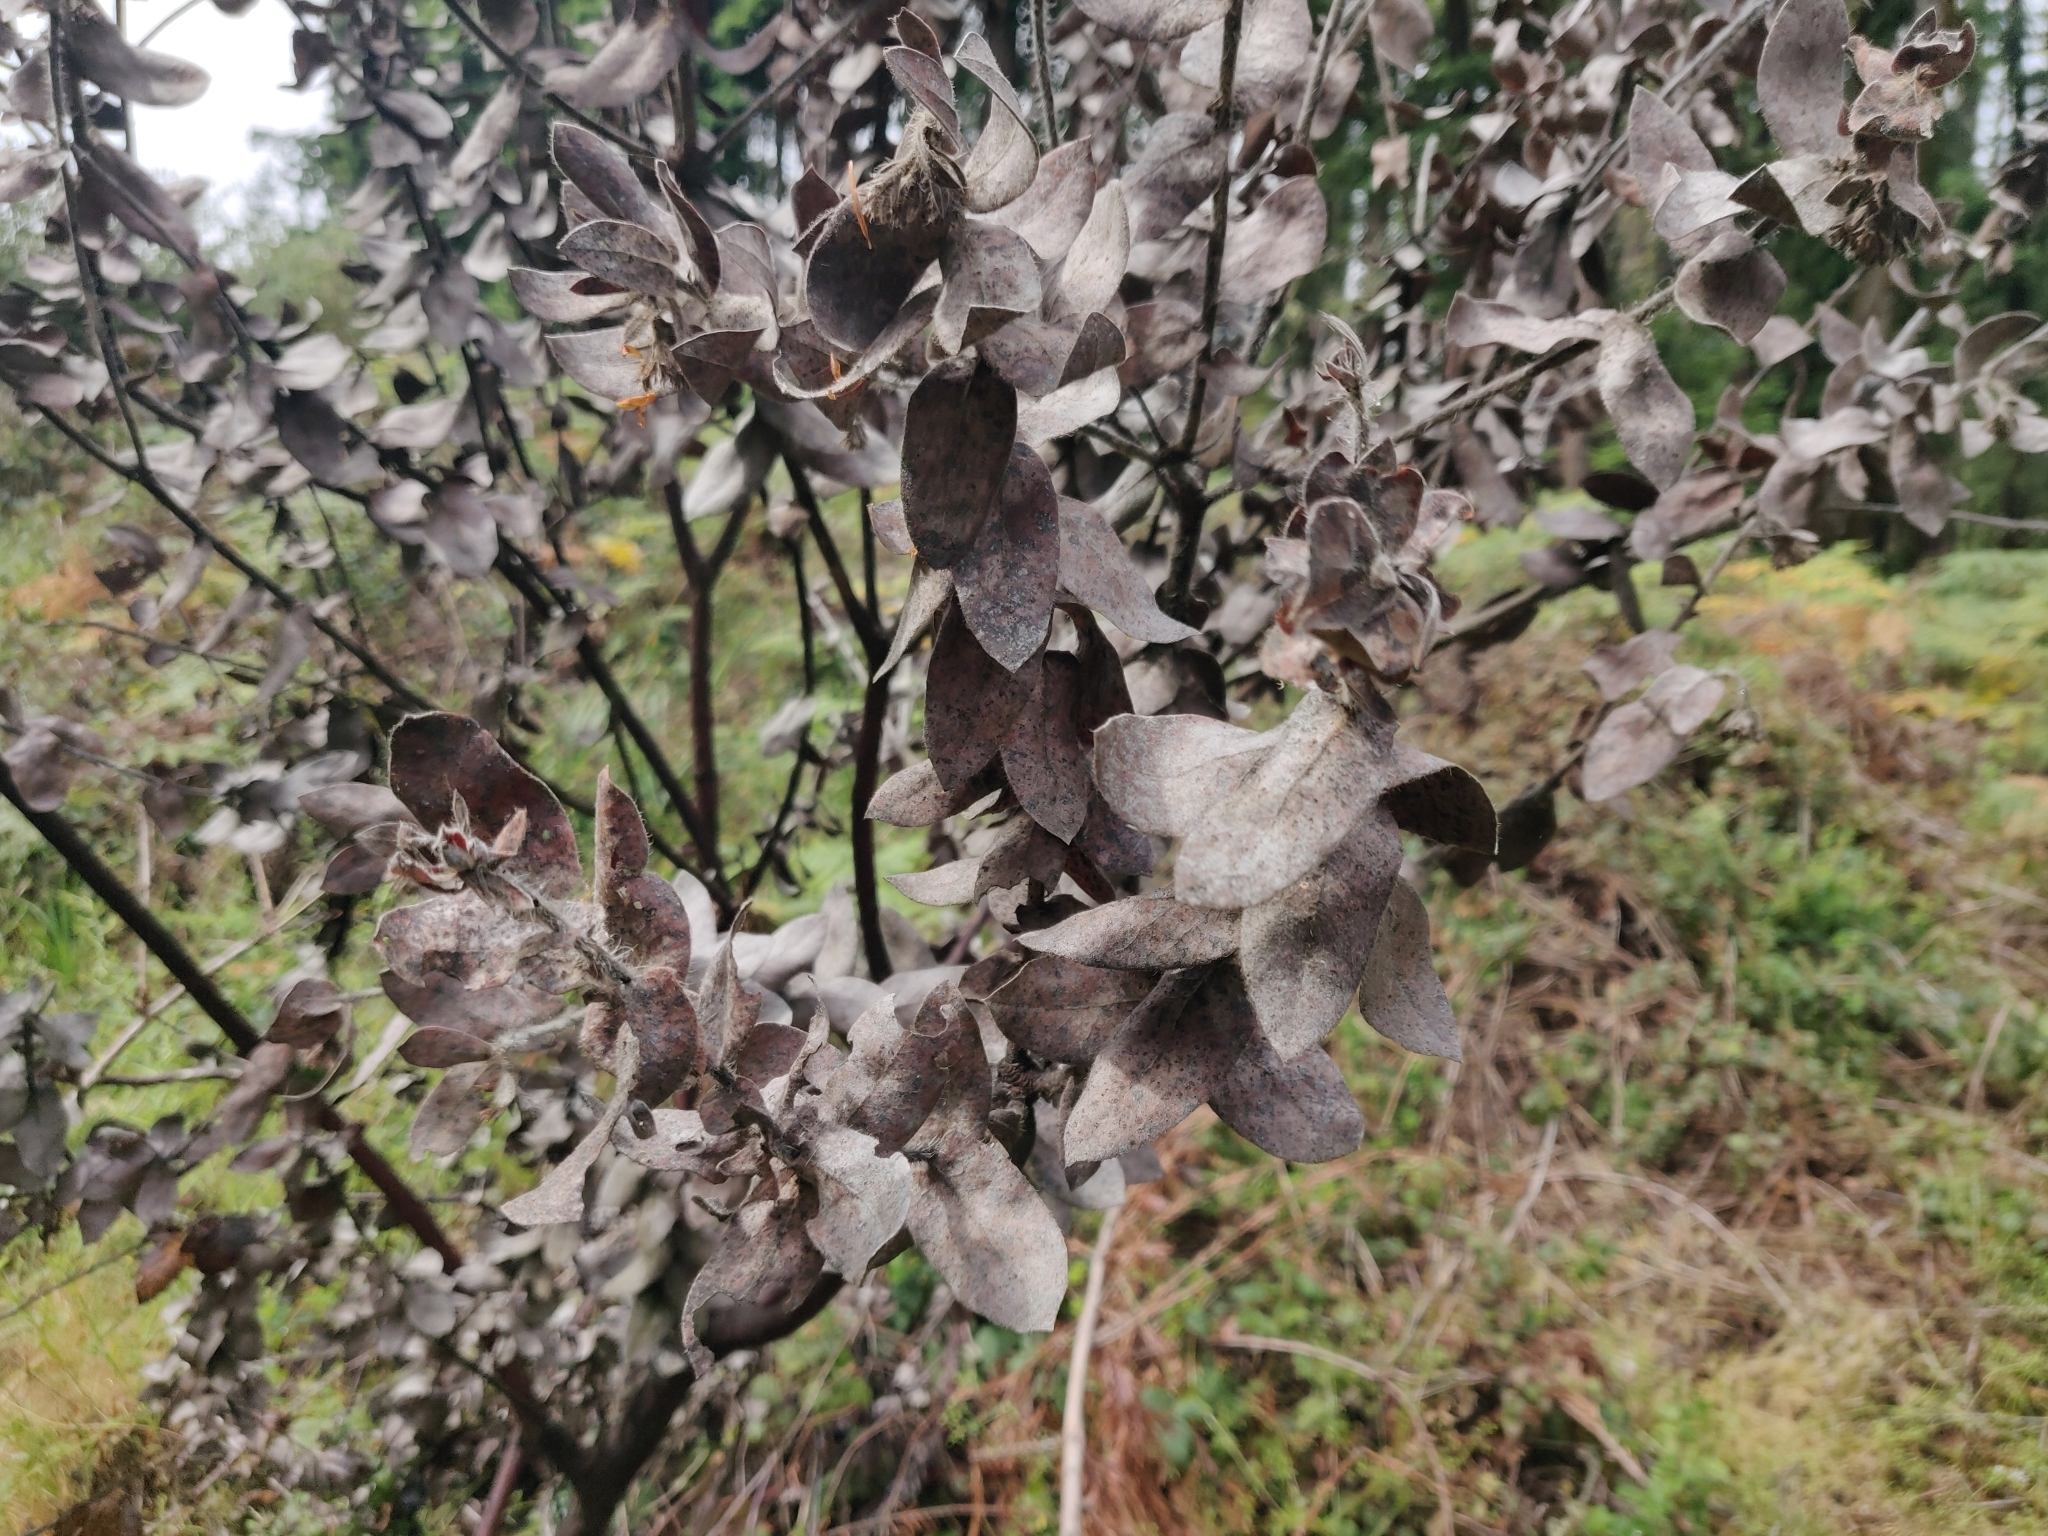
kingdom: Plantae
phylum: Tracheophyta
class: Magnoliopsida
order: Ericales
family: Ericaceae
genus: Arctostaphylos
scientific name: Arctostaphylos regismontana
